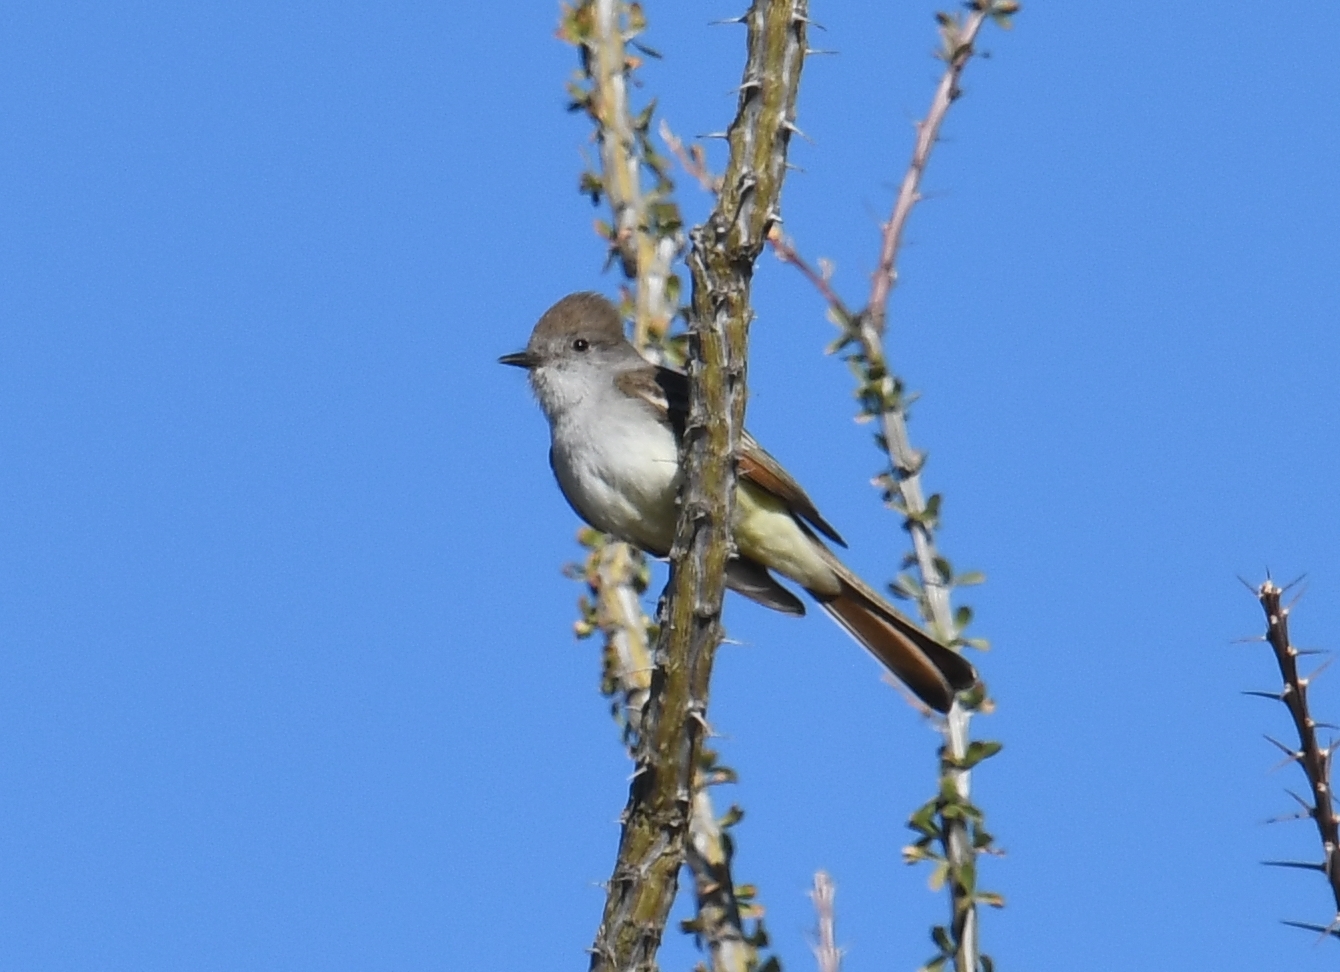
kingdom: Animalia
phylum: Chordata
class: Aves
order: Passeriformes
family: Tyrannidae
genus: Myiarchus
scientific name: Myiarchus cinerascens
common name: Ash-throated flycatcher
